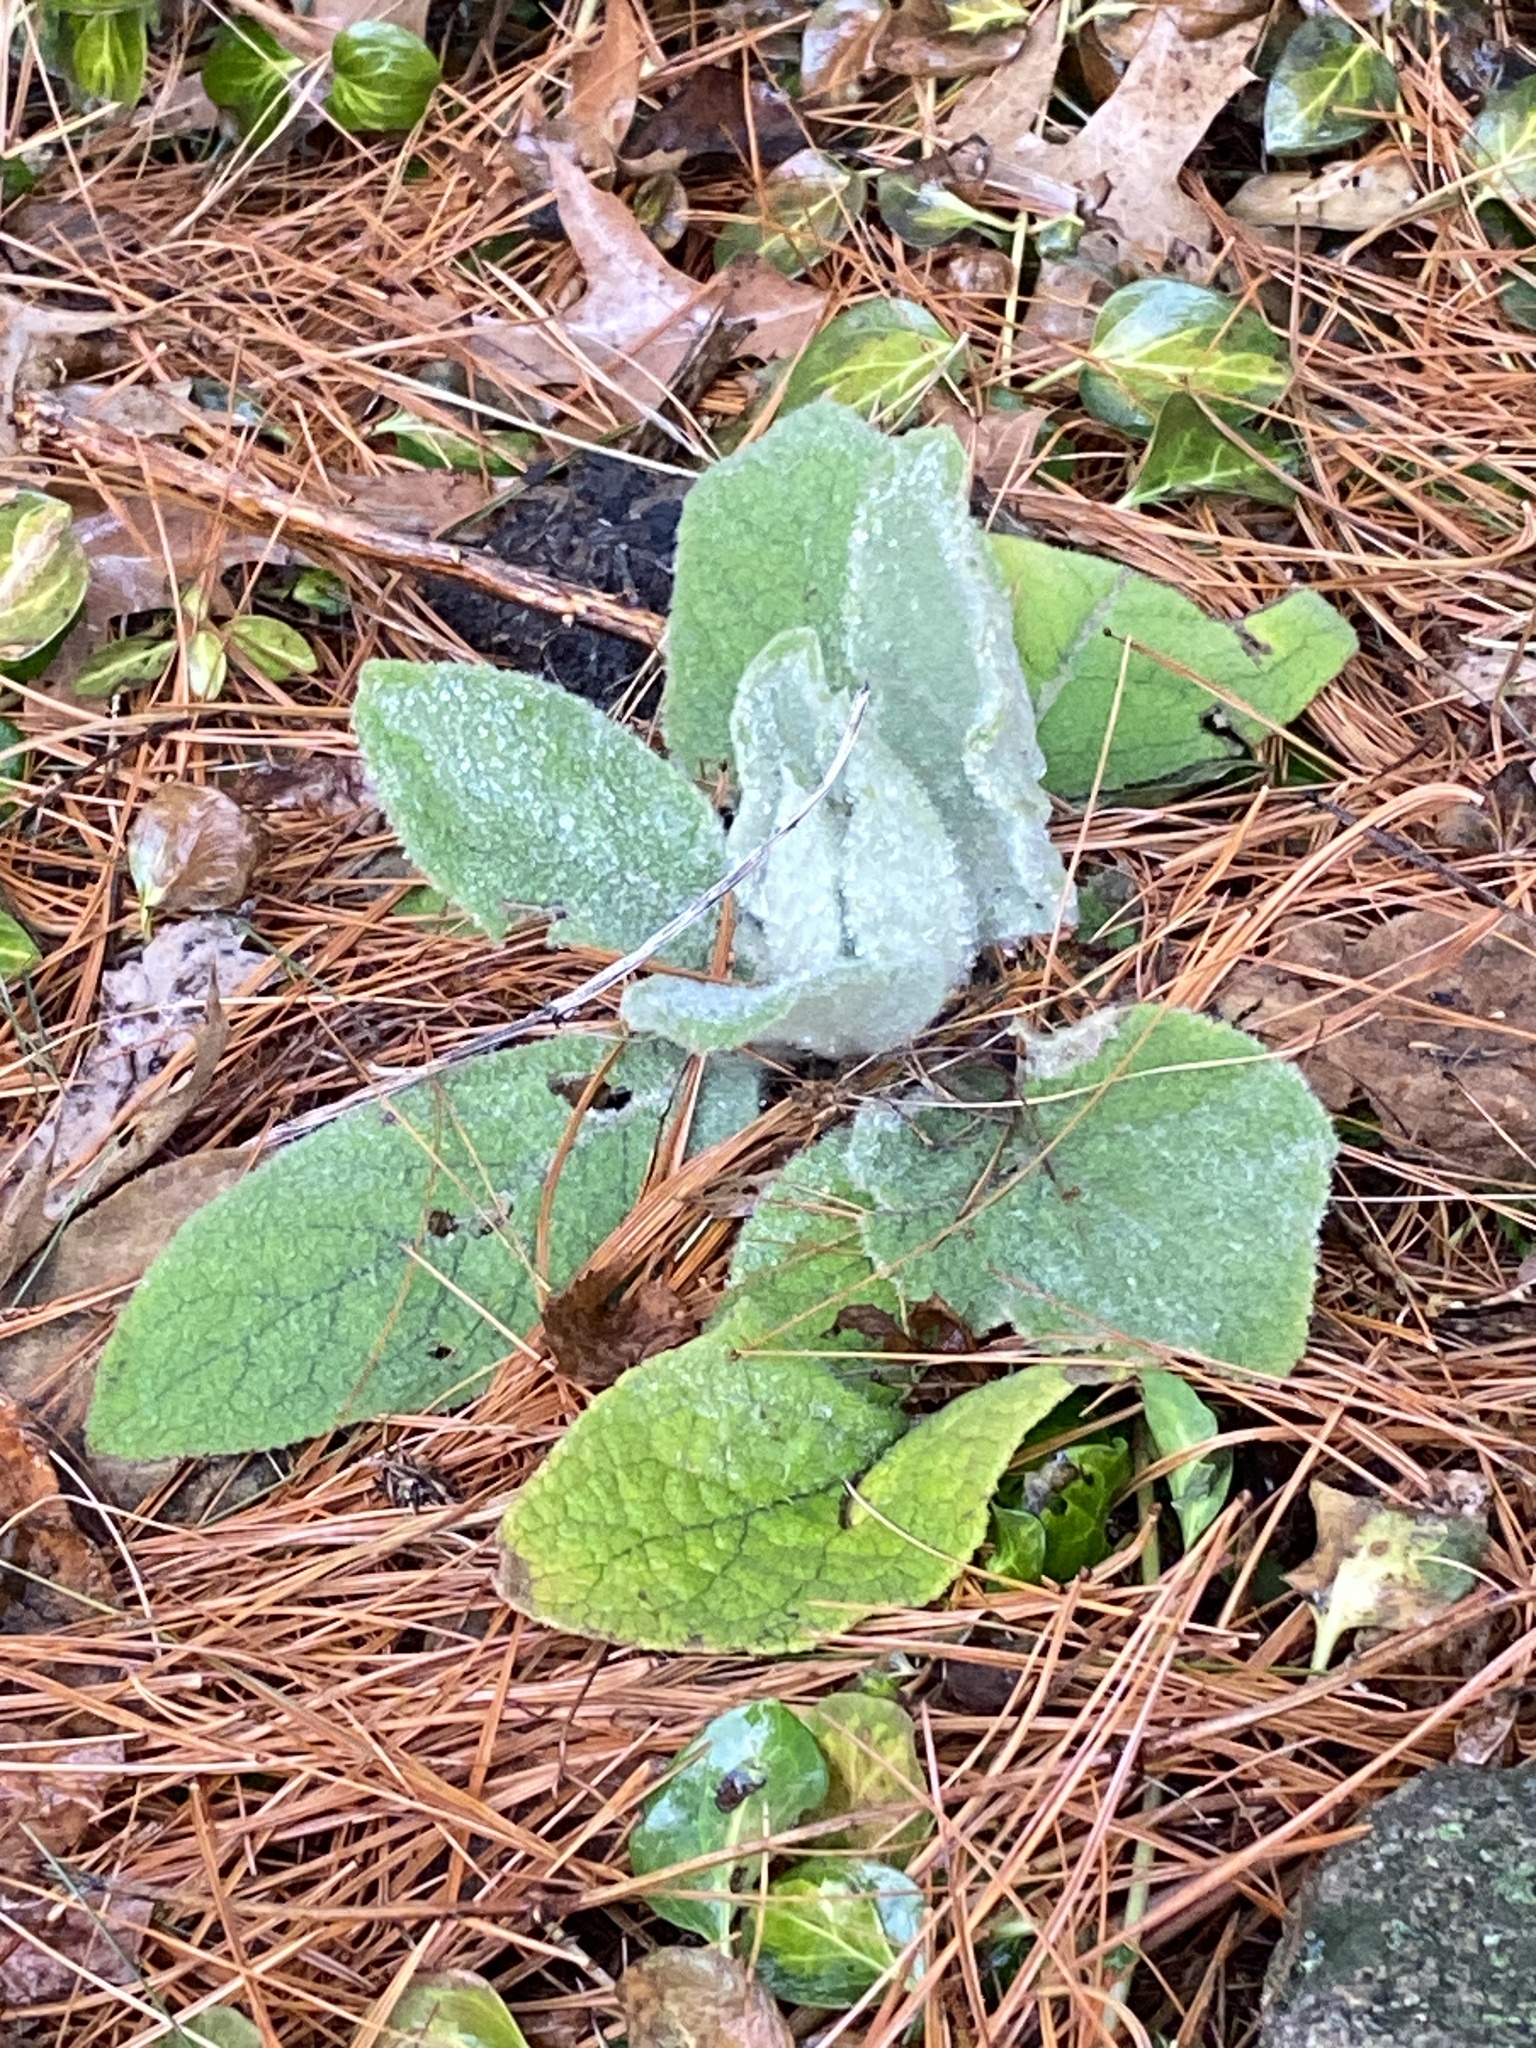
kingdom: Plantae
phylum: Tracheophyta
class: Magnoliopsida
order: Lamiales
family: Scrophulariaceae
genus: Verbascum
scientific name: Verbascum thapsus
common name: Common mullein
